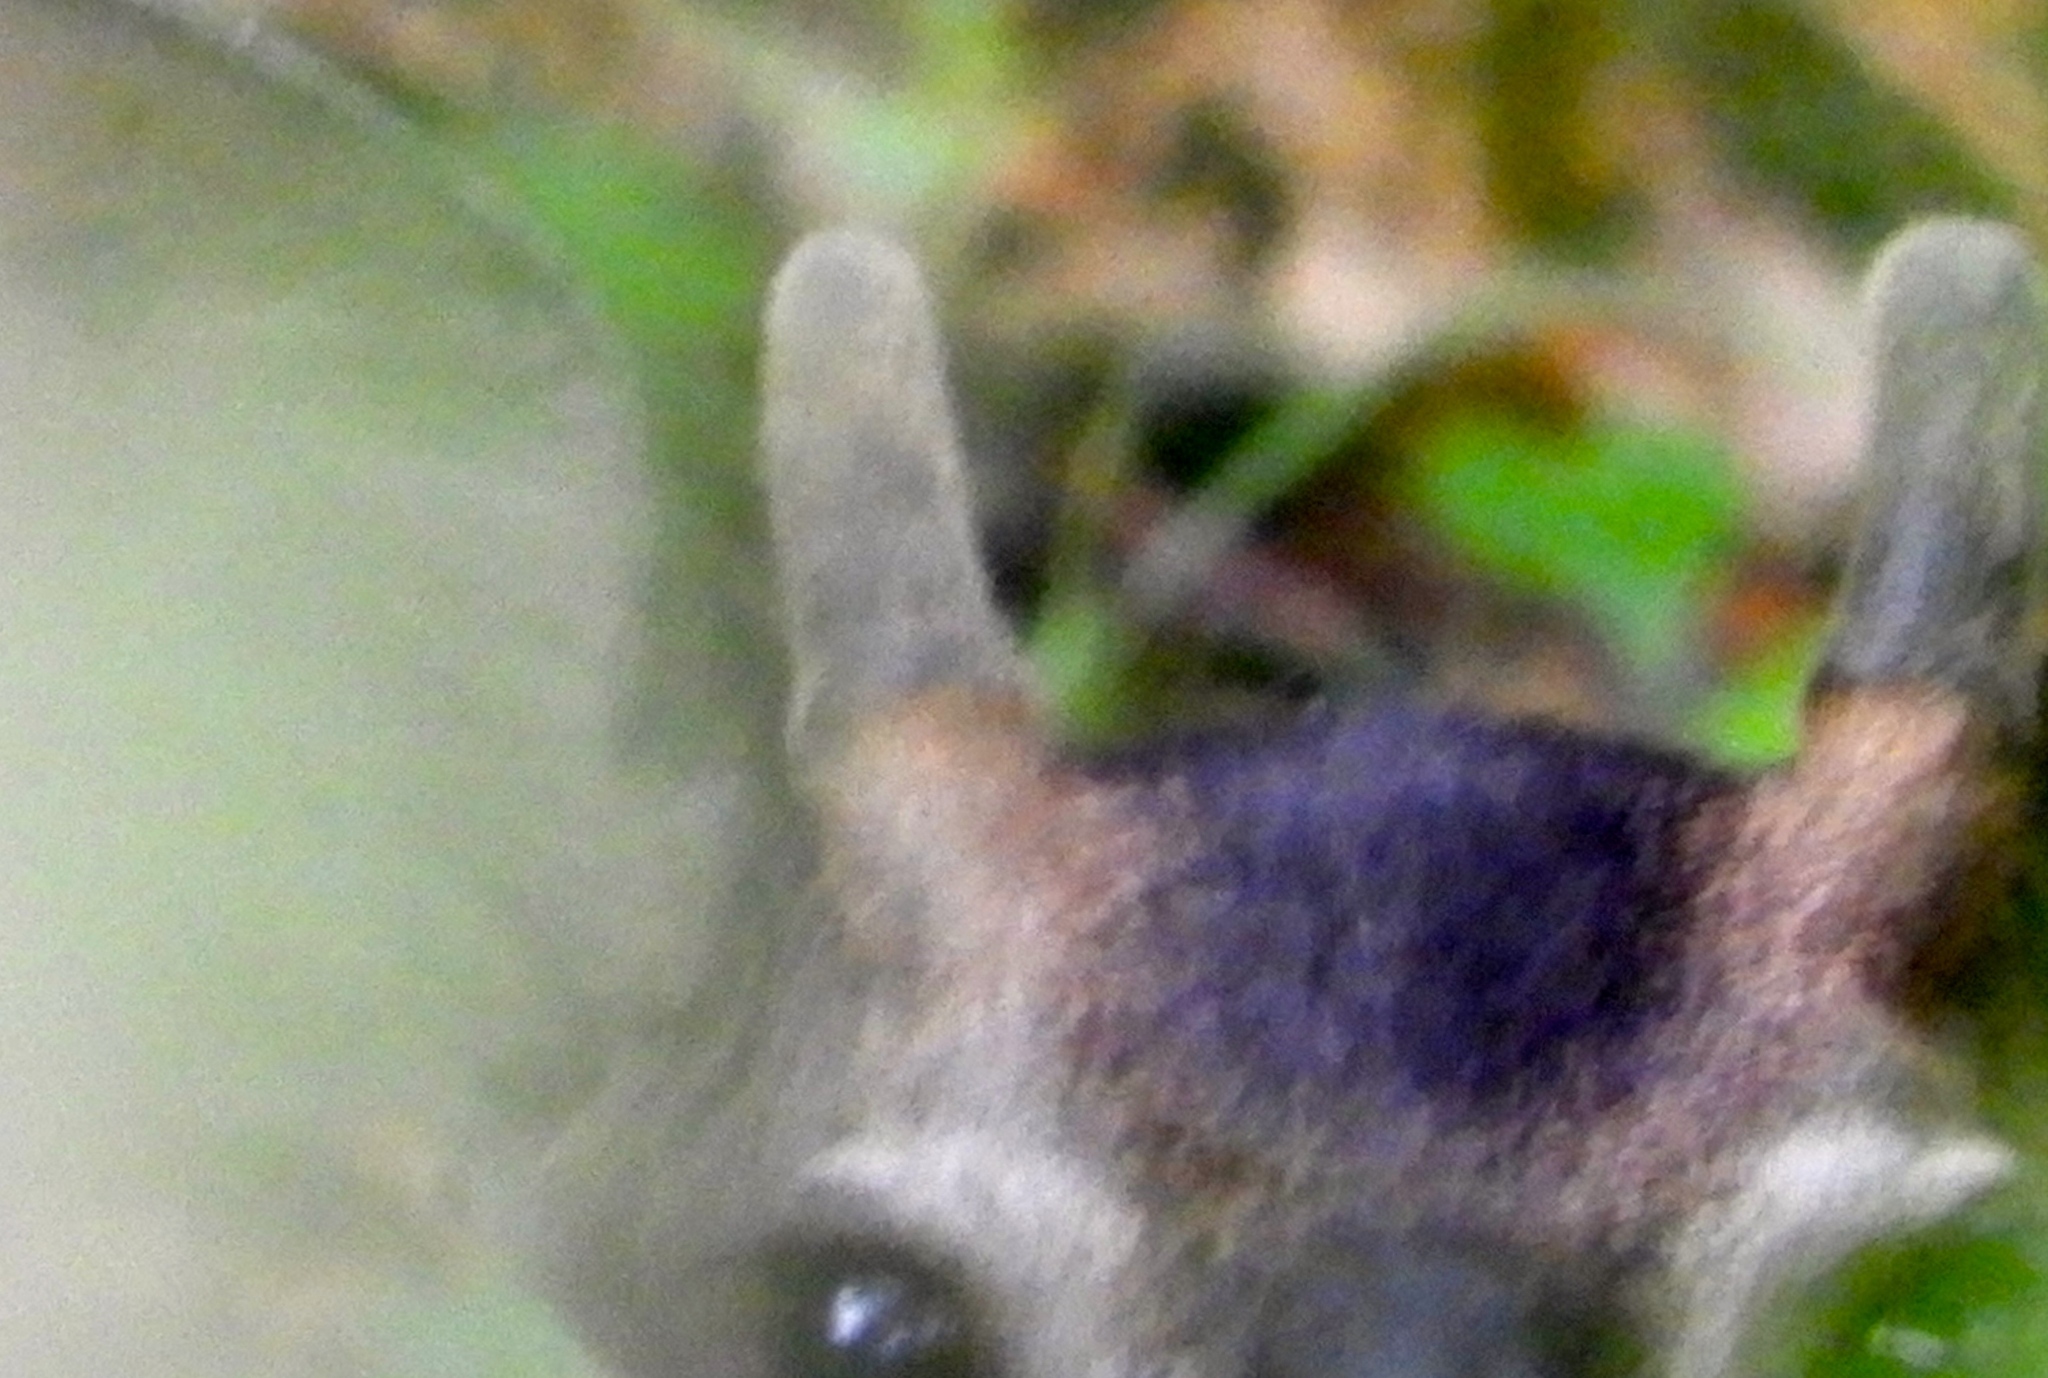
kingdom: Animalia
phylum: Chordata
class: Mammalia
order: Artiodactyla
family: Cervidae
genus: Odocoileus
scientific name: Odocoileus virginianus
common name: White-tailed deer
